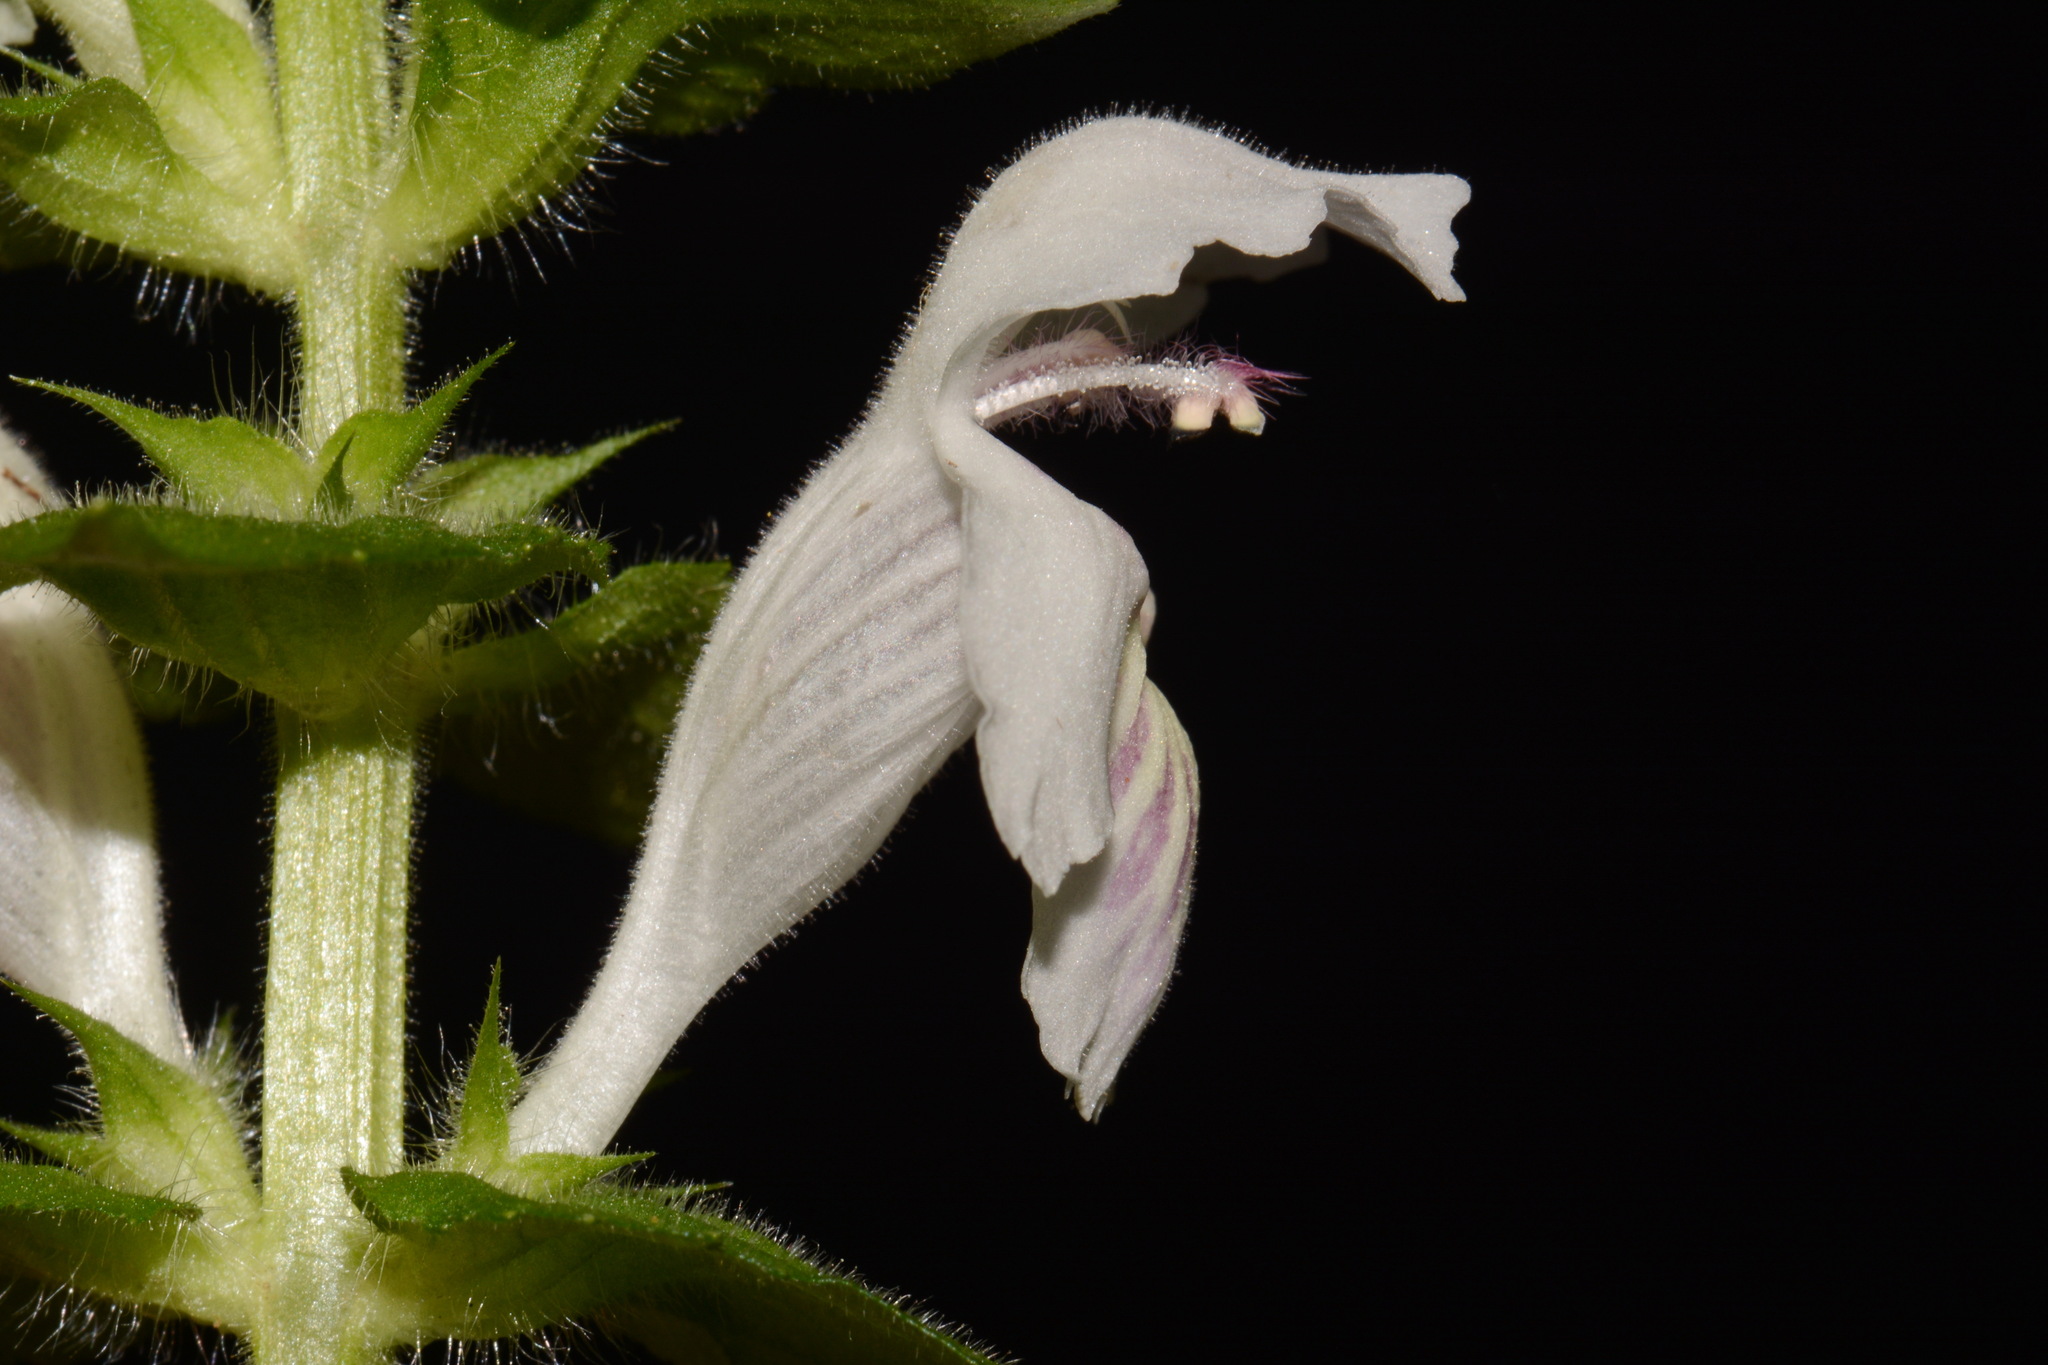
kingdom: Plantae
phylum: Tracheophyta
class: Magnoliopsida
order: Lamiales
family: Lamiaceae
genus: Synandra
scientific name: Synandra hispidula
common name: Synandra
